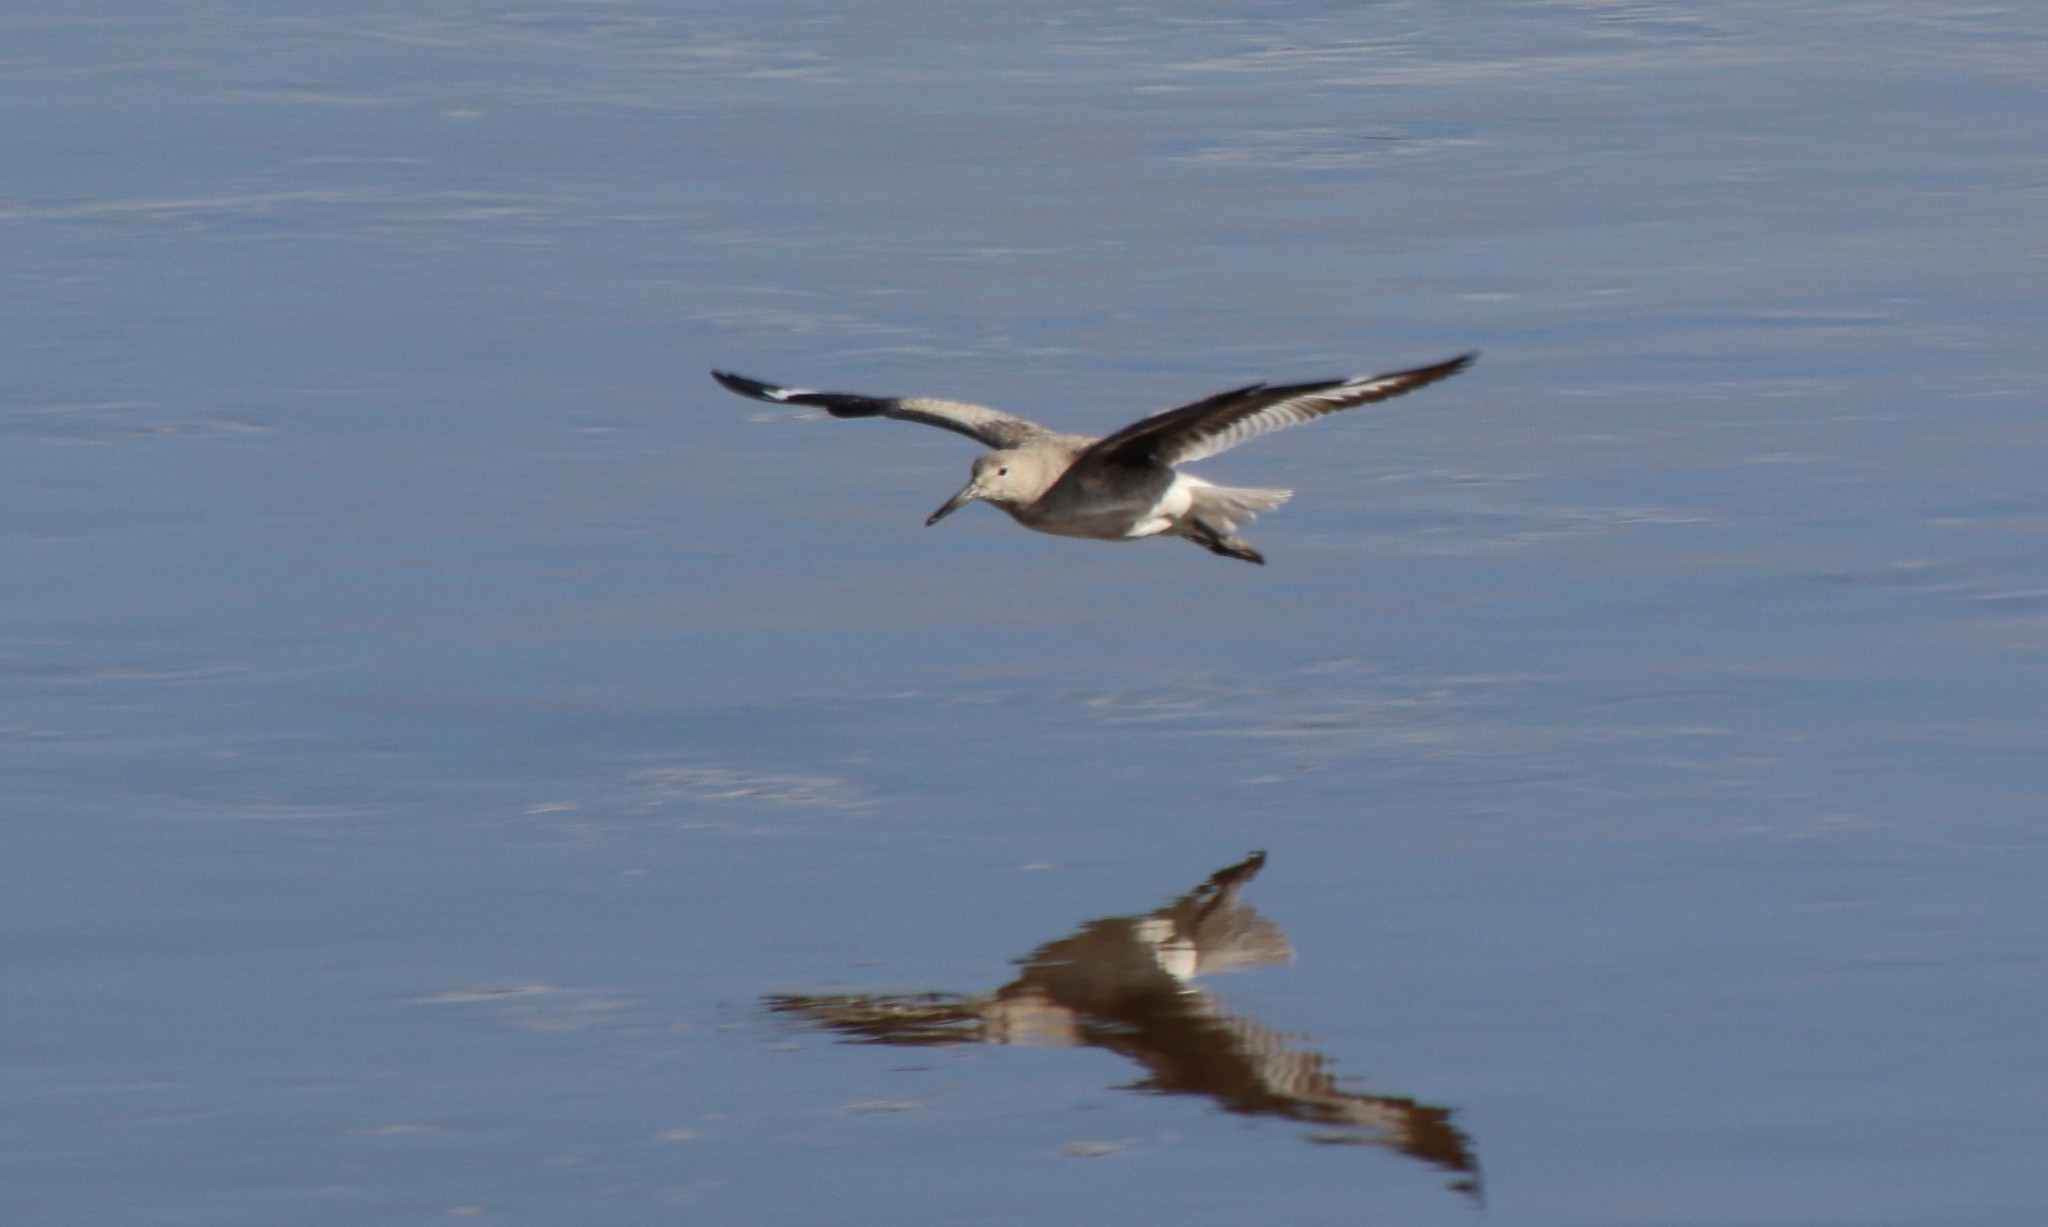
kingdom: Animalia
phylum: Chordata
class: Aves
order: Charadriiformes
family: Scolopacidae
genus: Tringa
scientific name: Tringa semipalmata
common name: Willet
